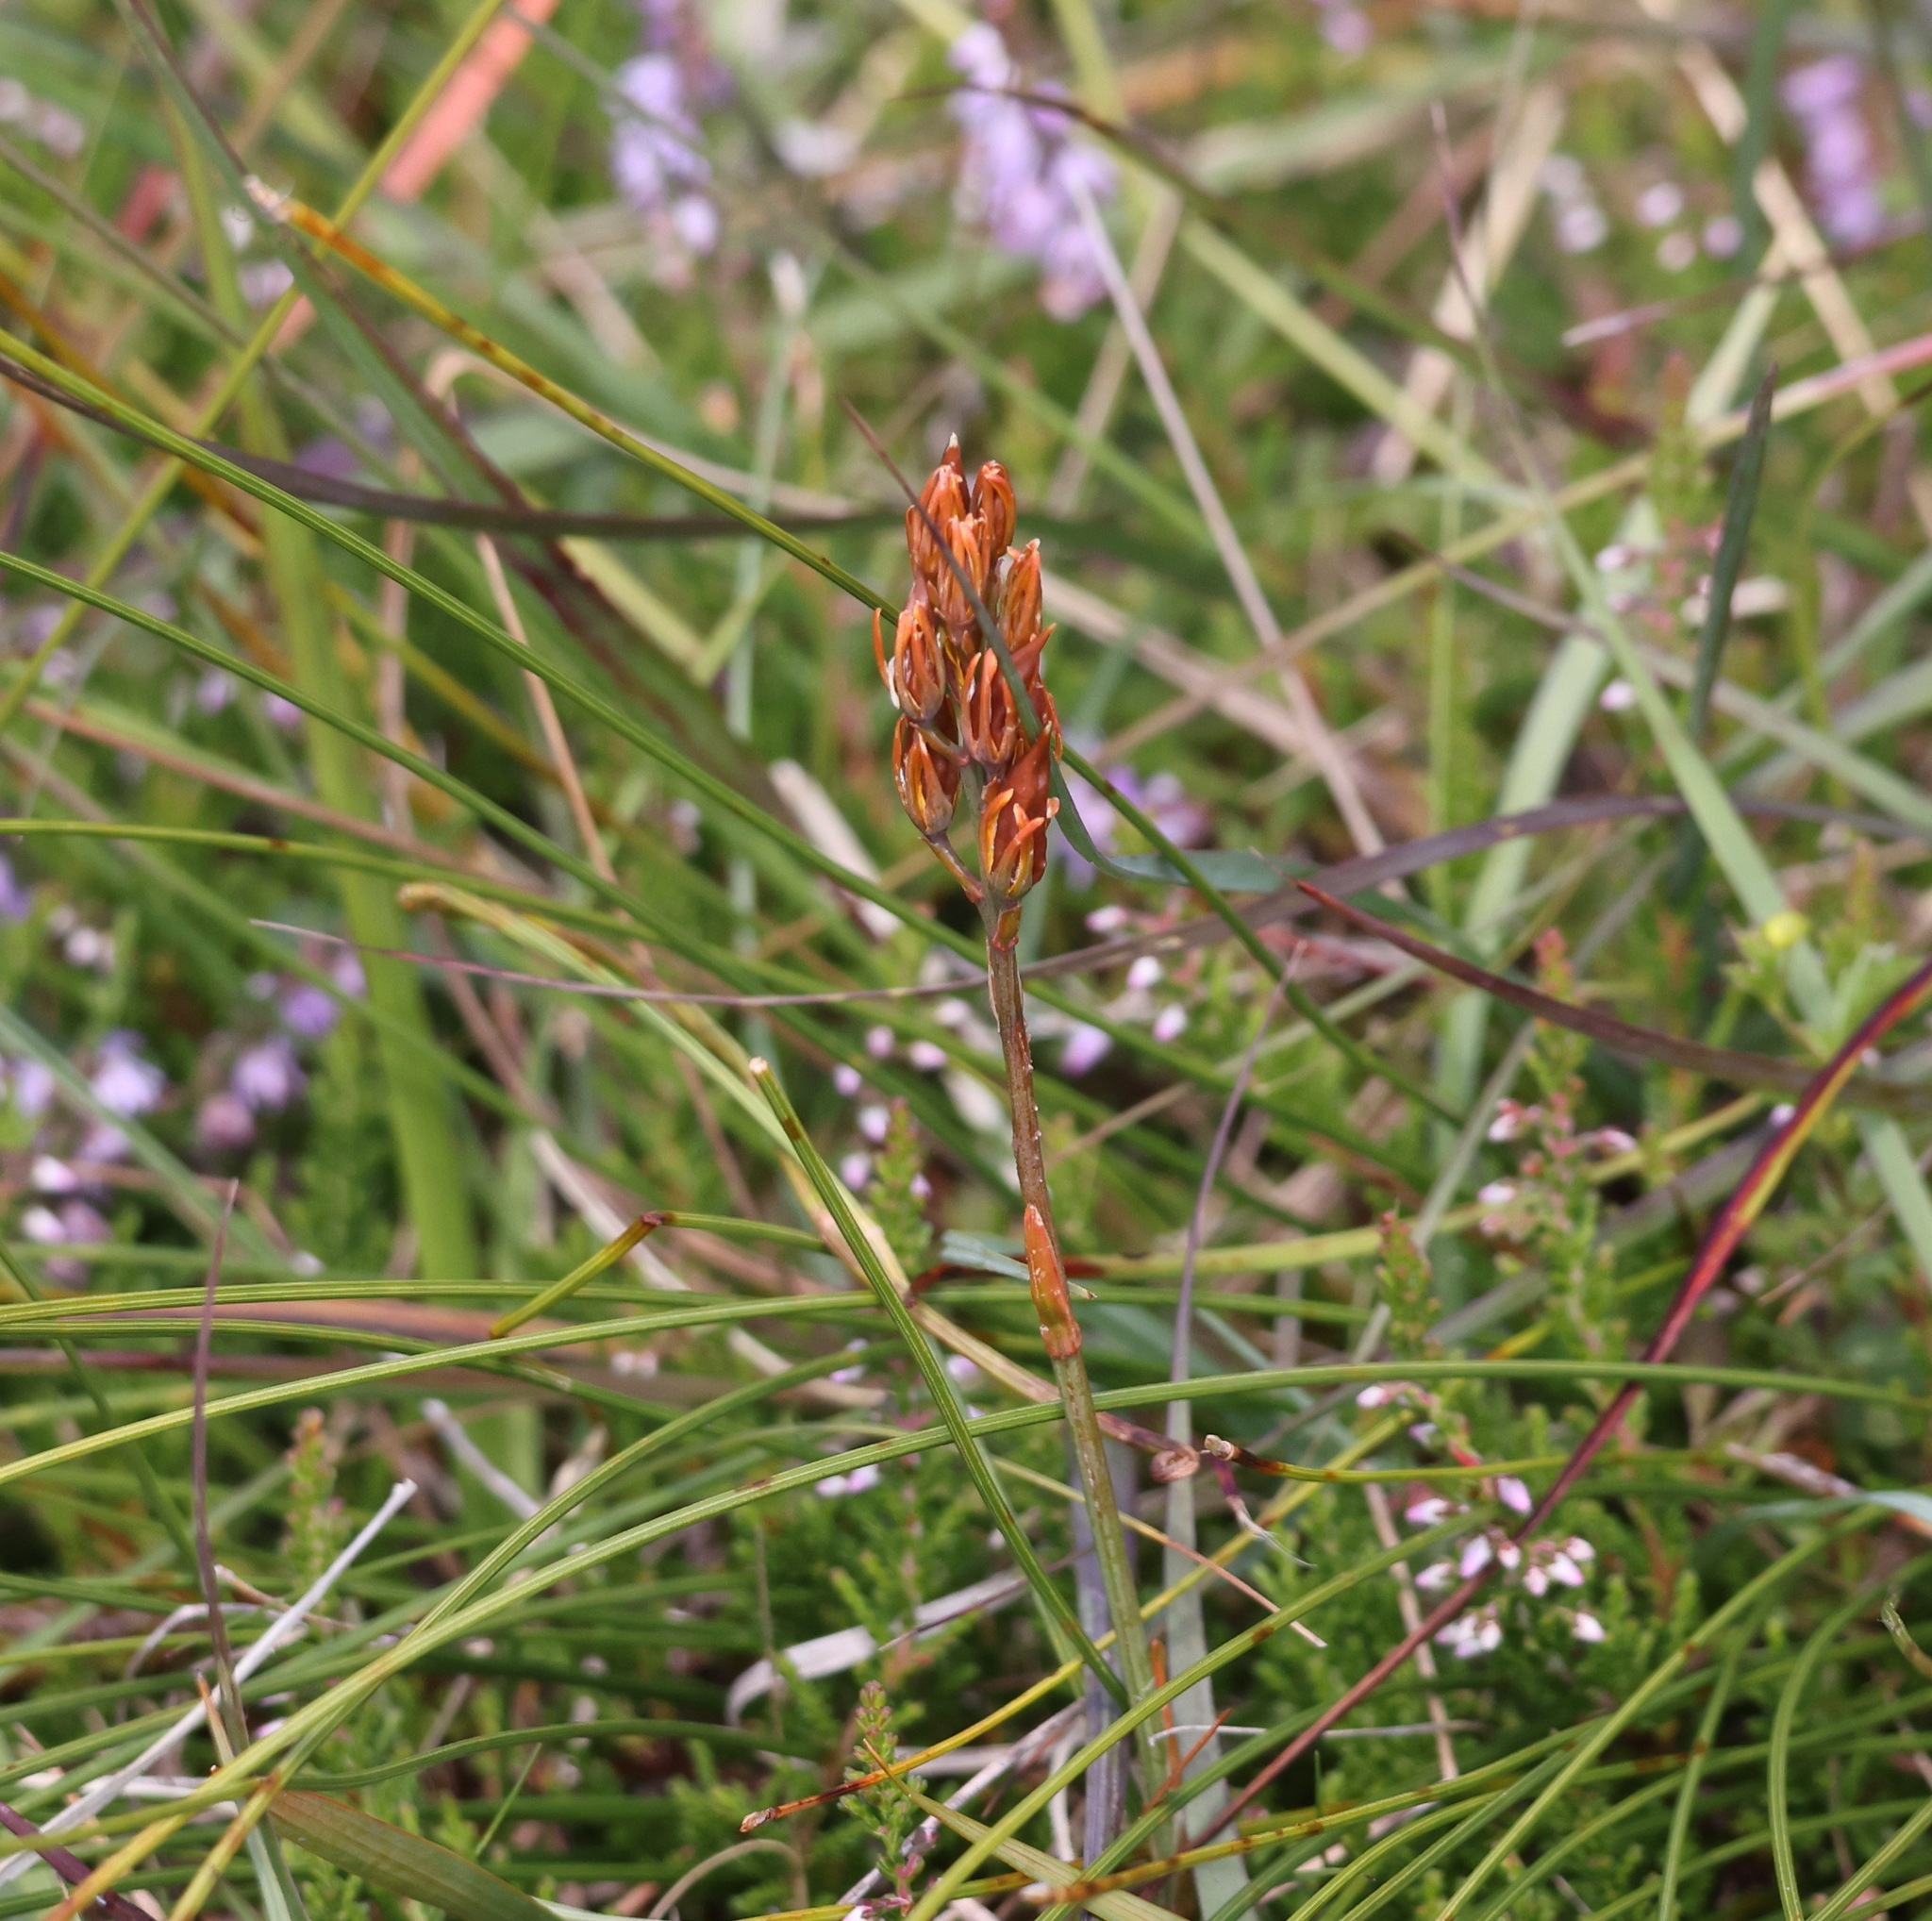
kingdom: Plantae
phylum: Tracheophyta
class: Liliopsida
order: Dioscoreales
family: Nartheciaceae
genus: Narthecium
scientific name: Narthecium ossifragum
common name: Bog asphodel
